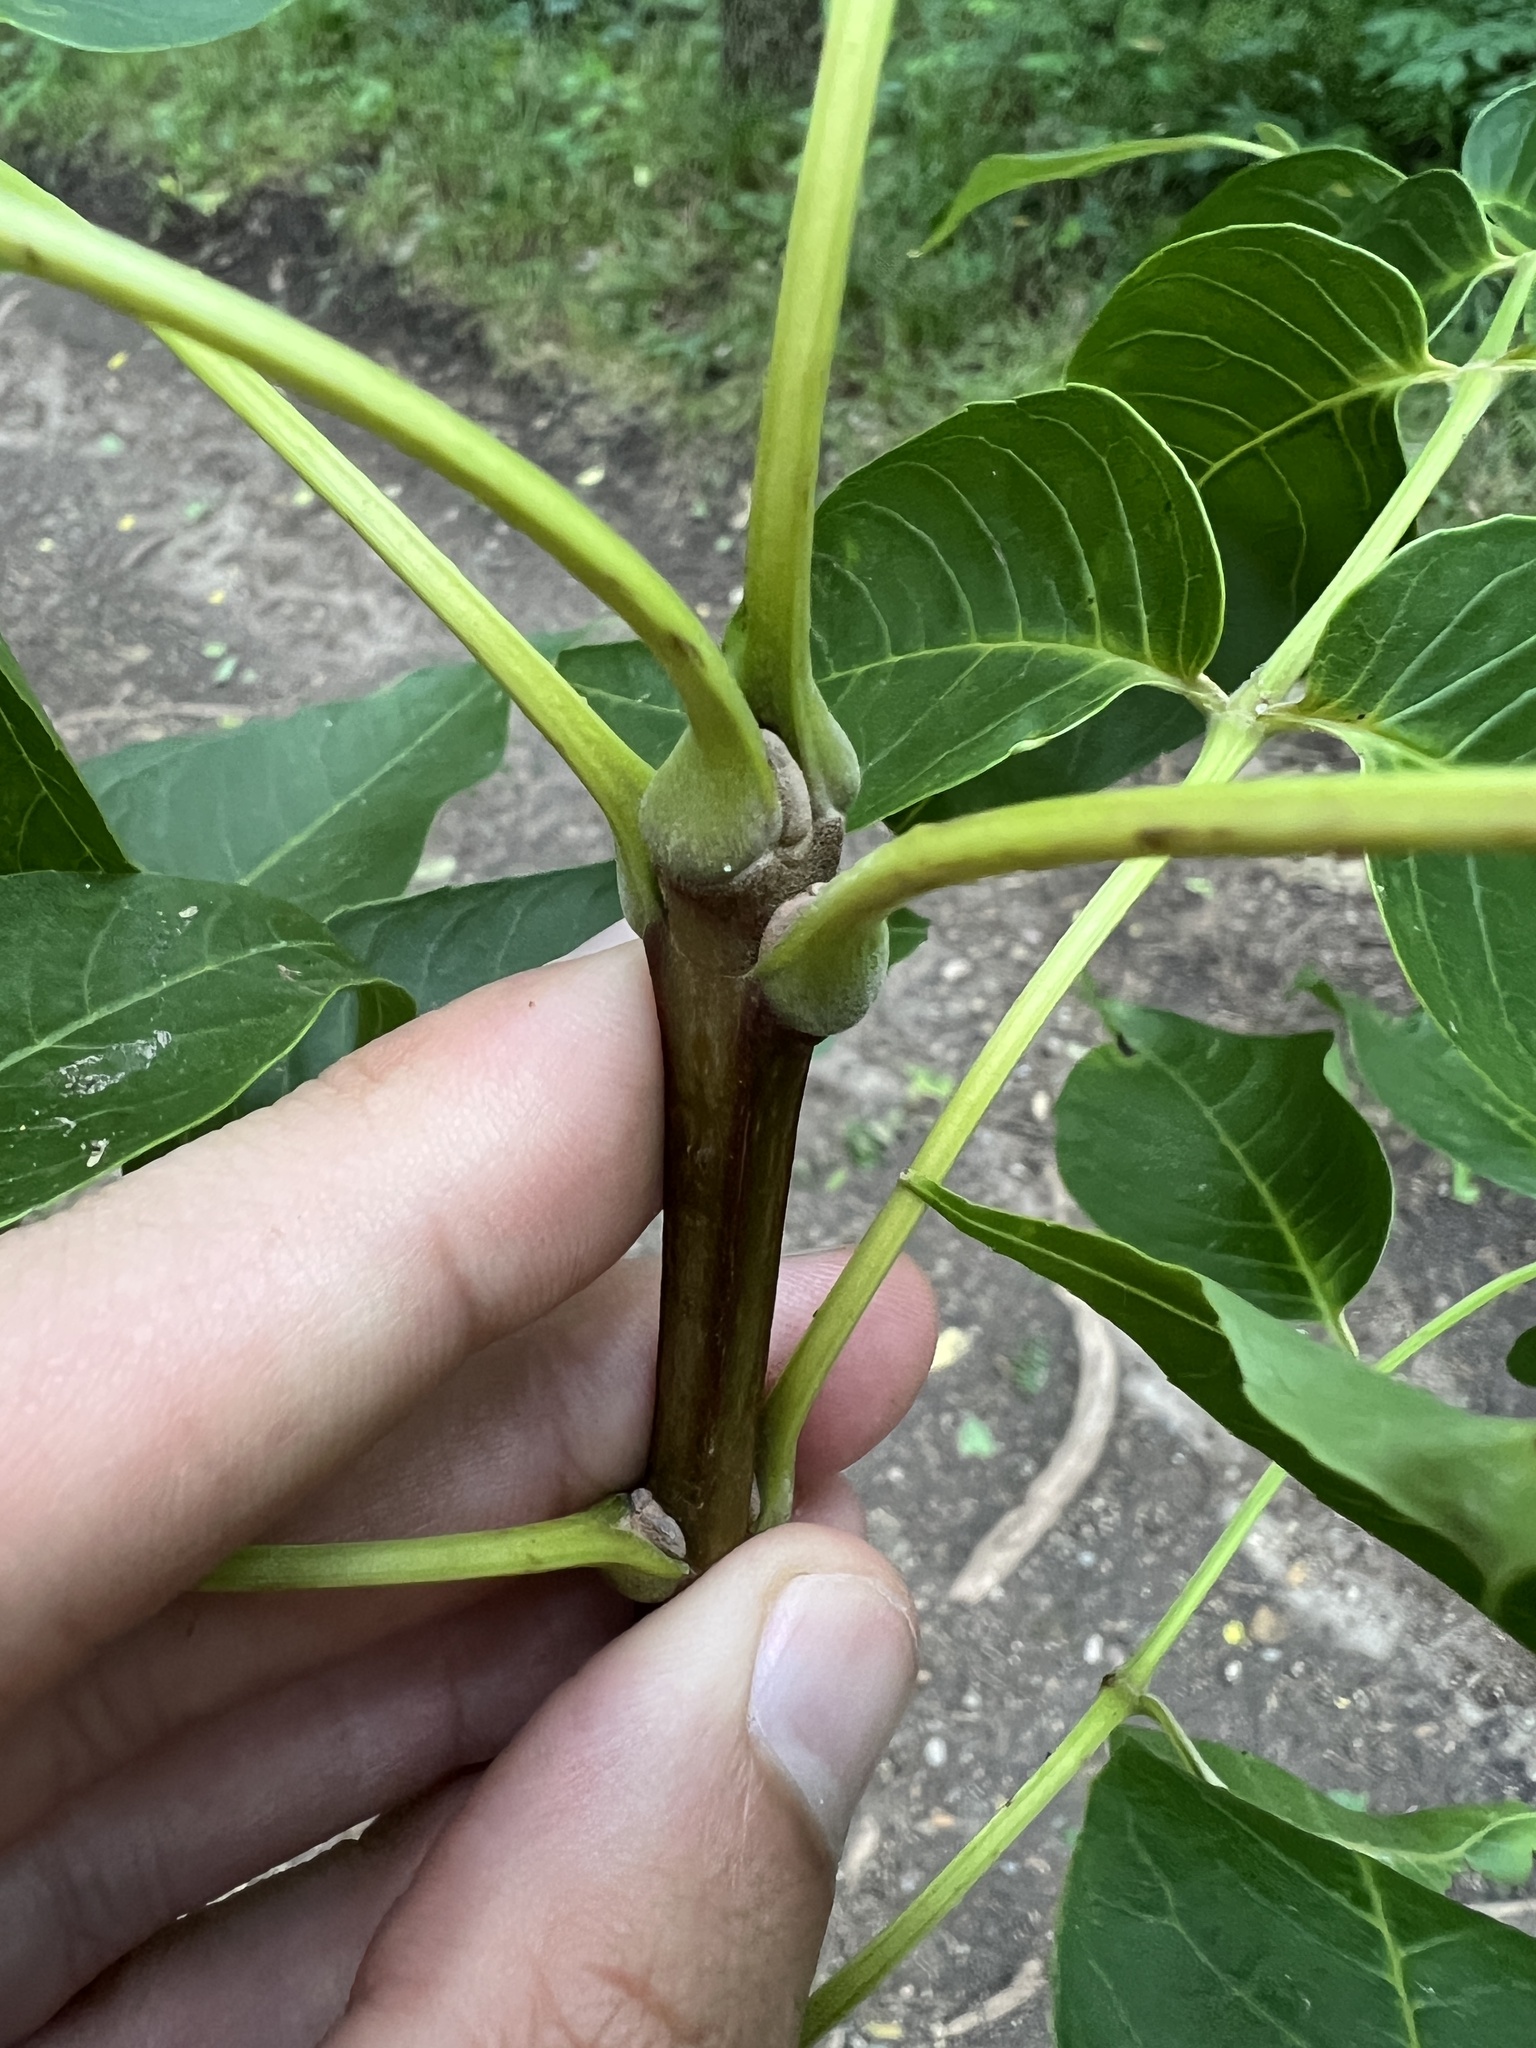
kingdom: Plantae
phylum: Tracheophyta
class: Magnoliopsida
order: Lamiales
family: Oleaceae
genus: Fraxinus
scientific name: Fraxinus quadrangulata
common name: Blue ash
